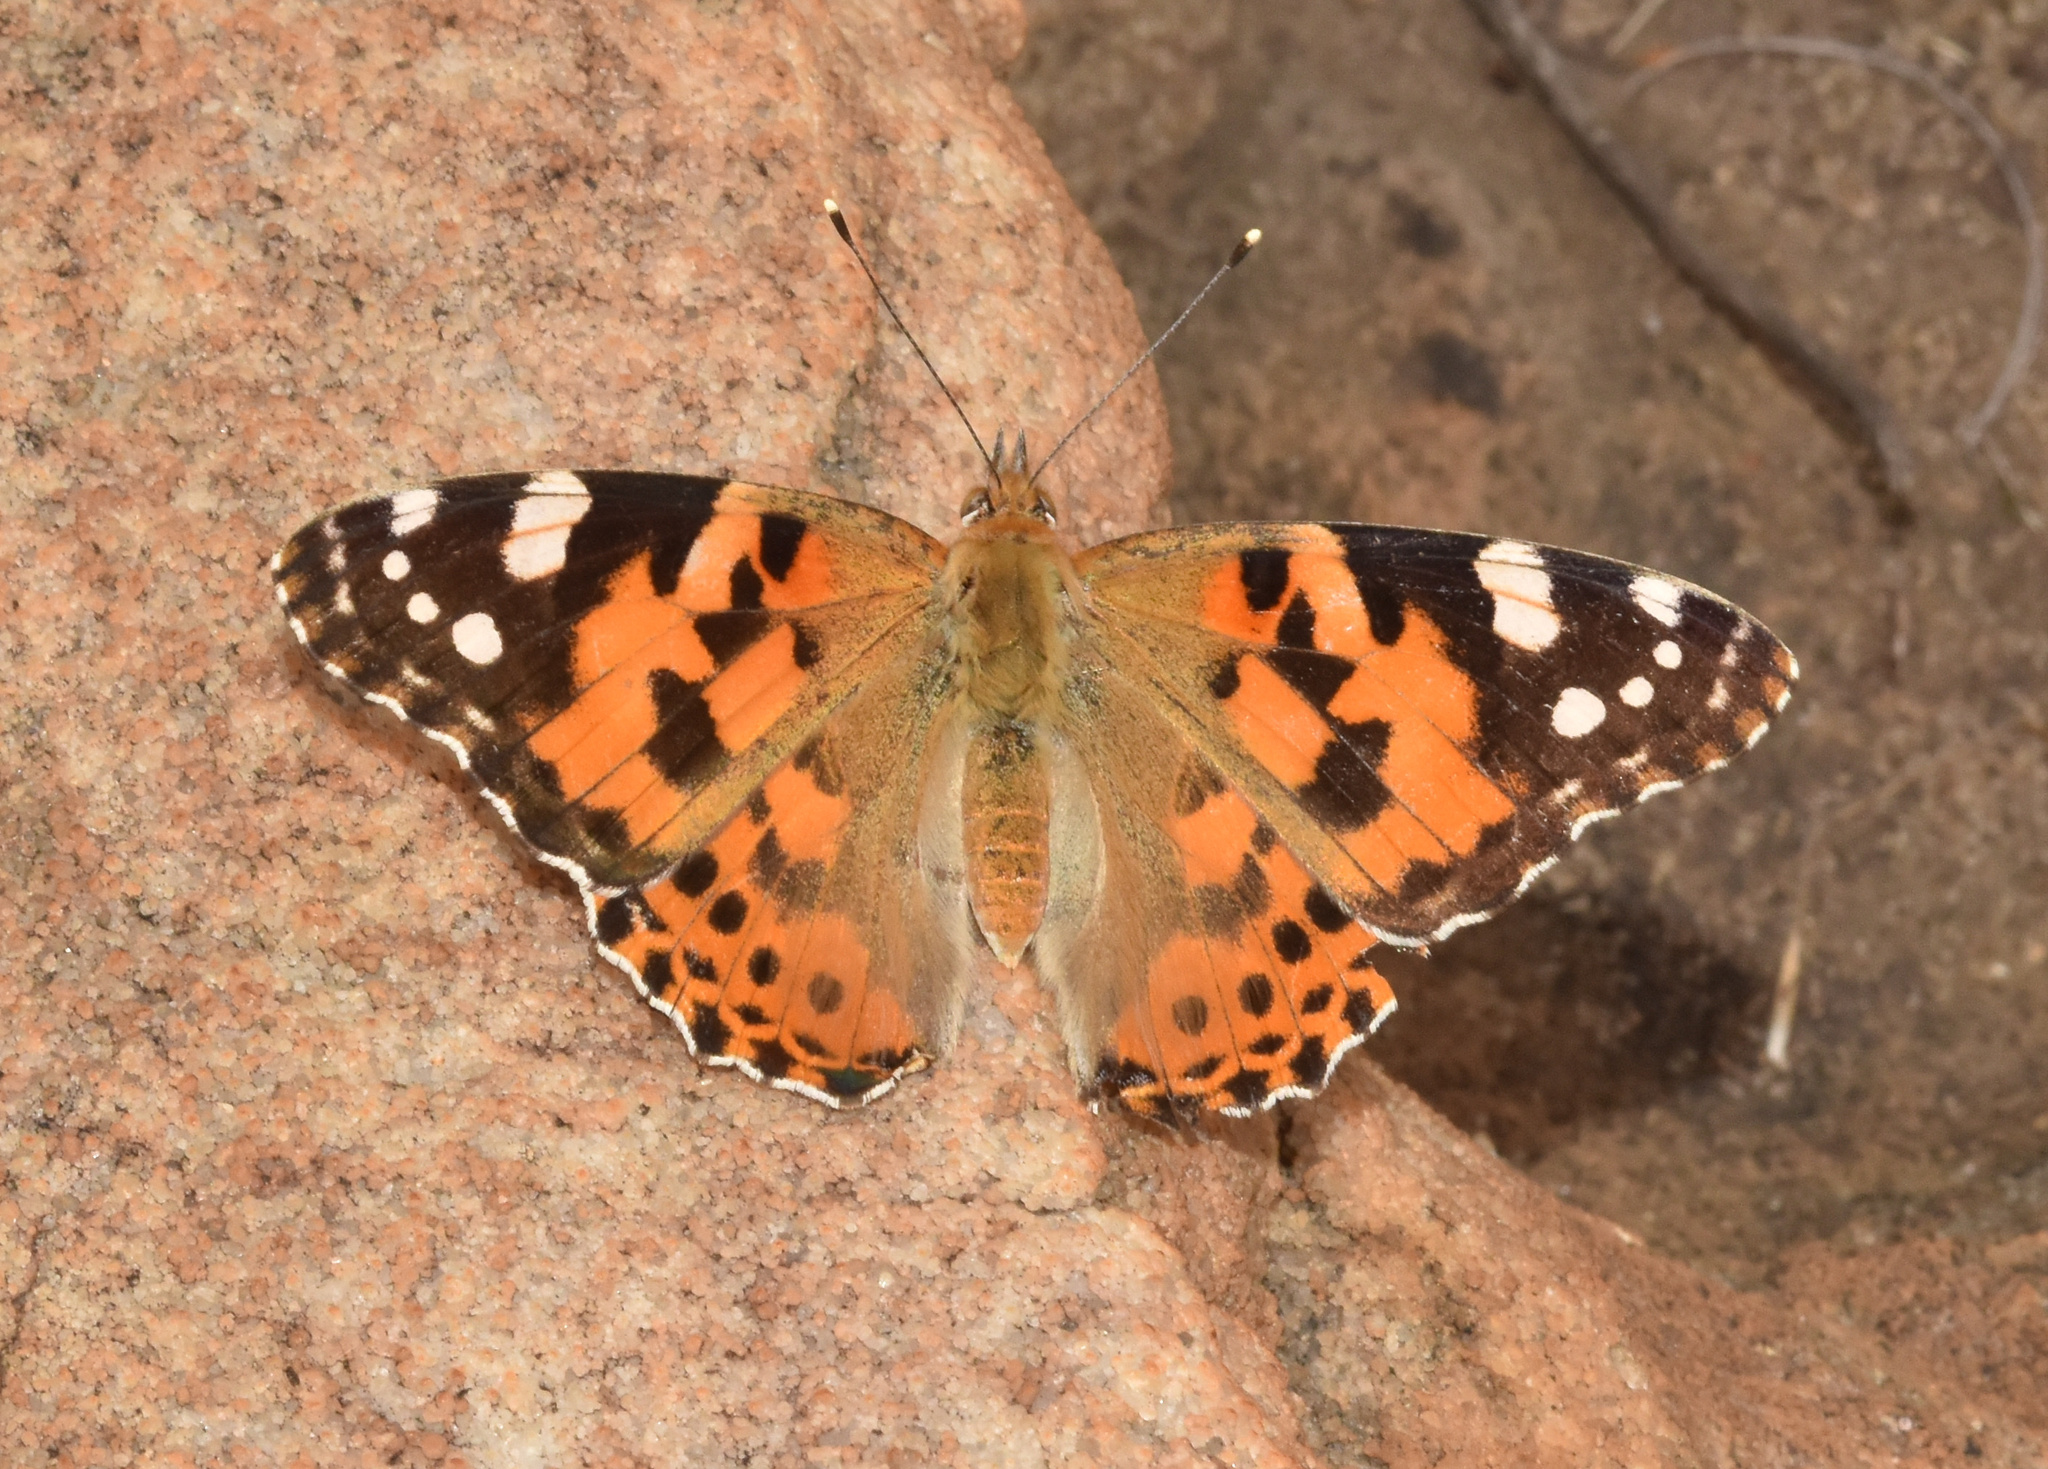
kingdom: Animalia
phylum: Arthropoda
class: Insecta
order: Lepidoptera
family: Nymphalidae
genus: Vanessa
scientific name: Vanessa cardui
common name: Painted lady
